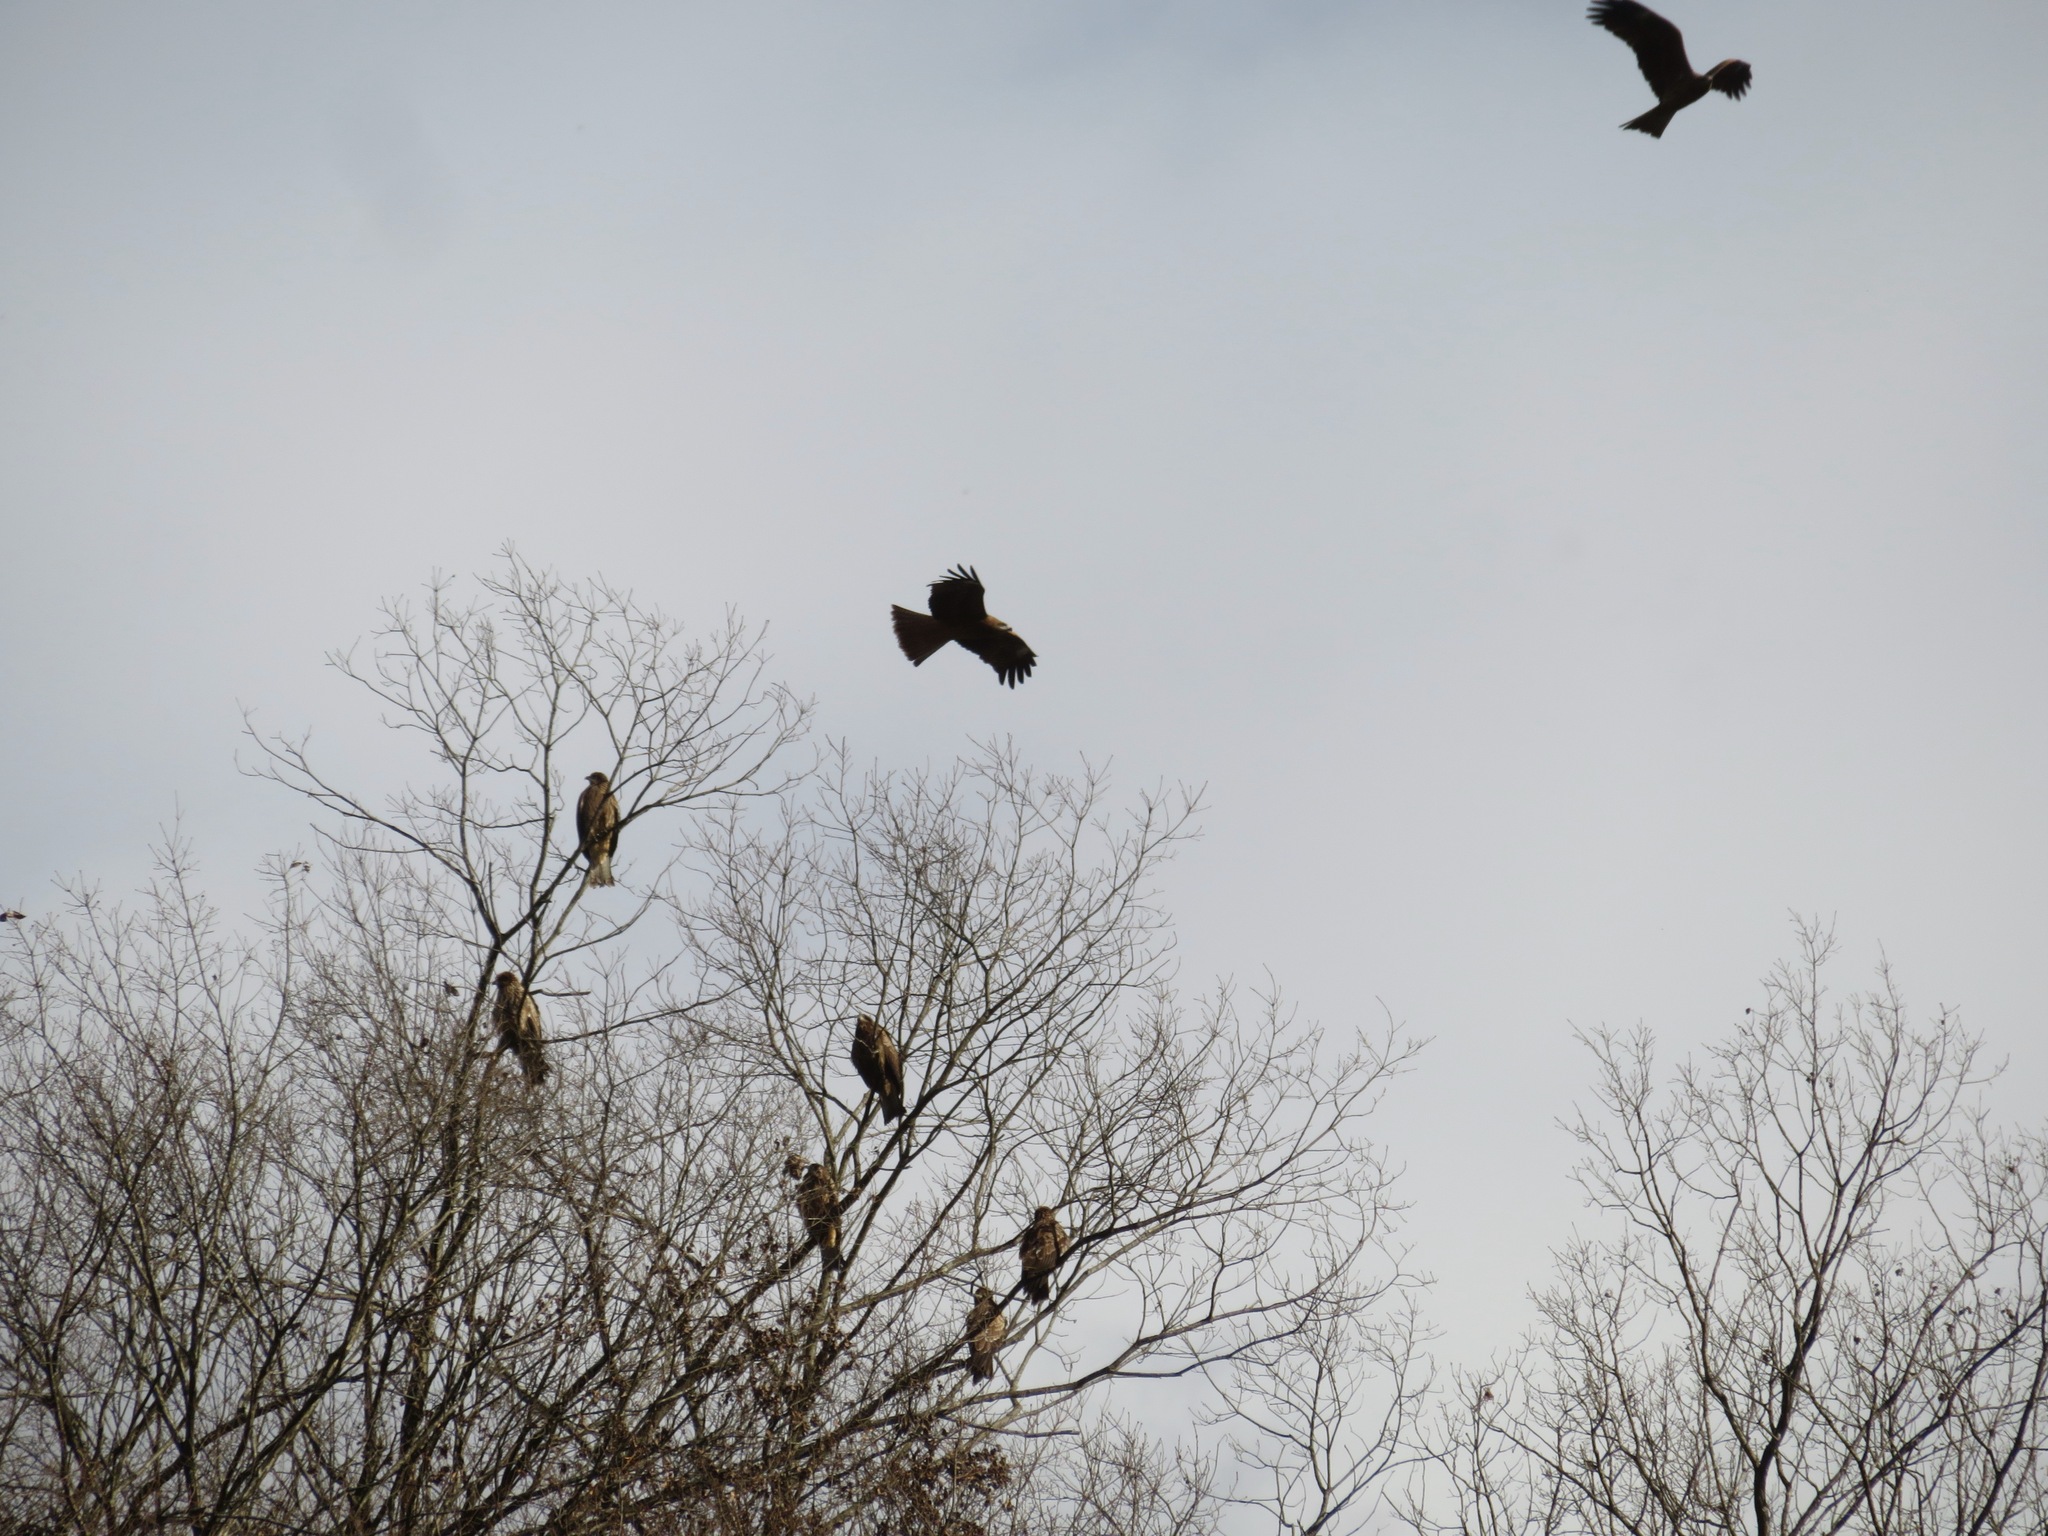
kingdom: Animalia
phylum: Chordata
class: Aves
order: Accipitriformes
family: Accipitridae
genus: Milvus
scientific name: Milvus migrans
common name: Black kite
